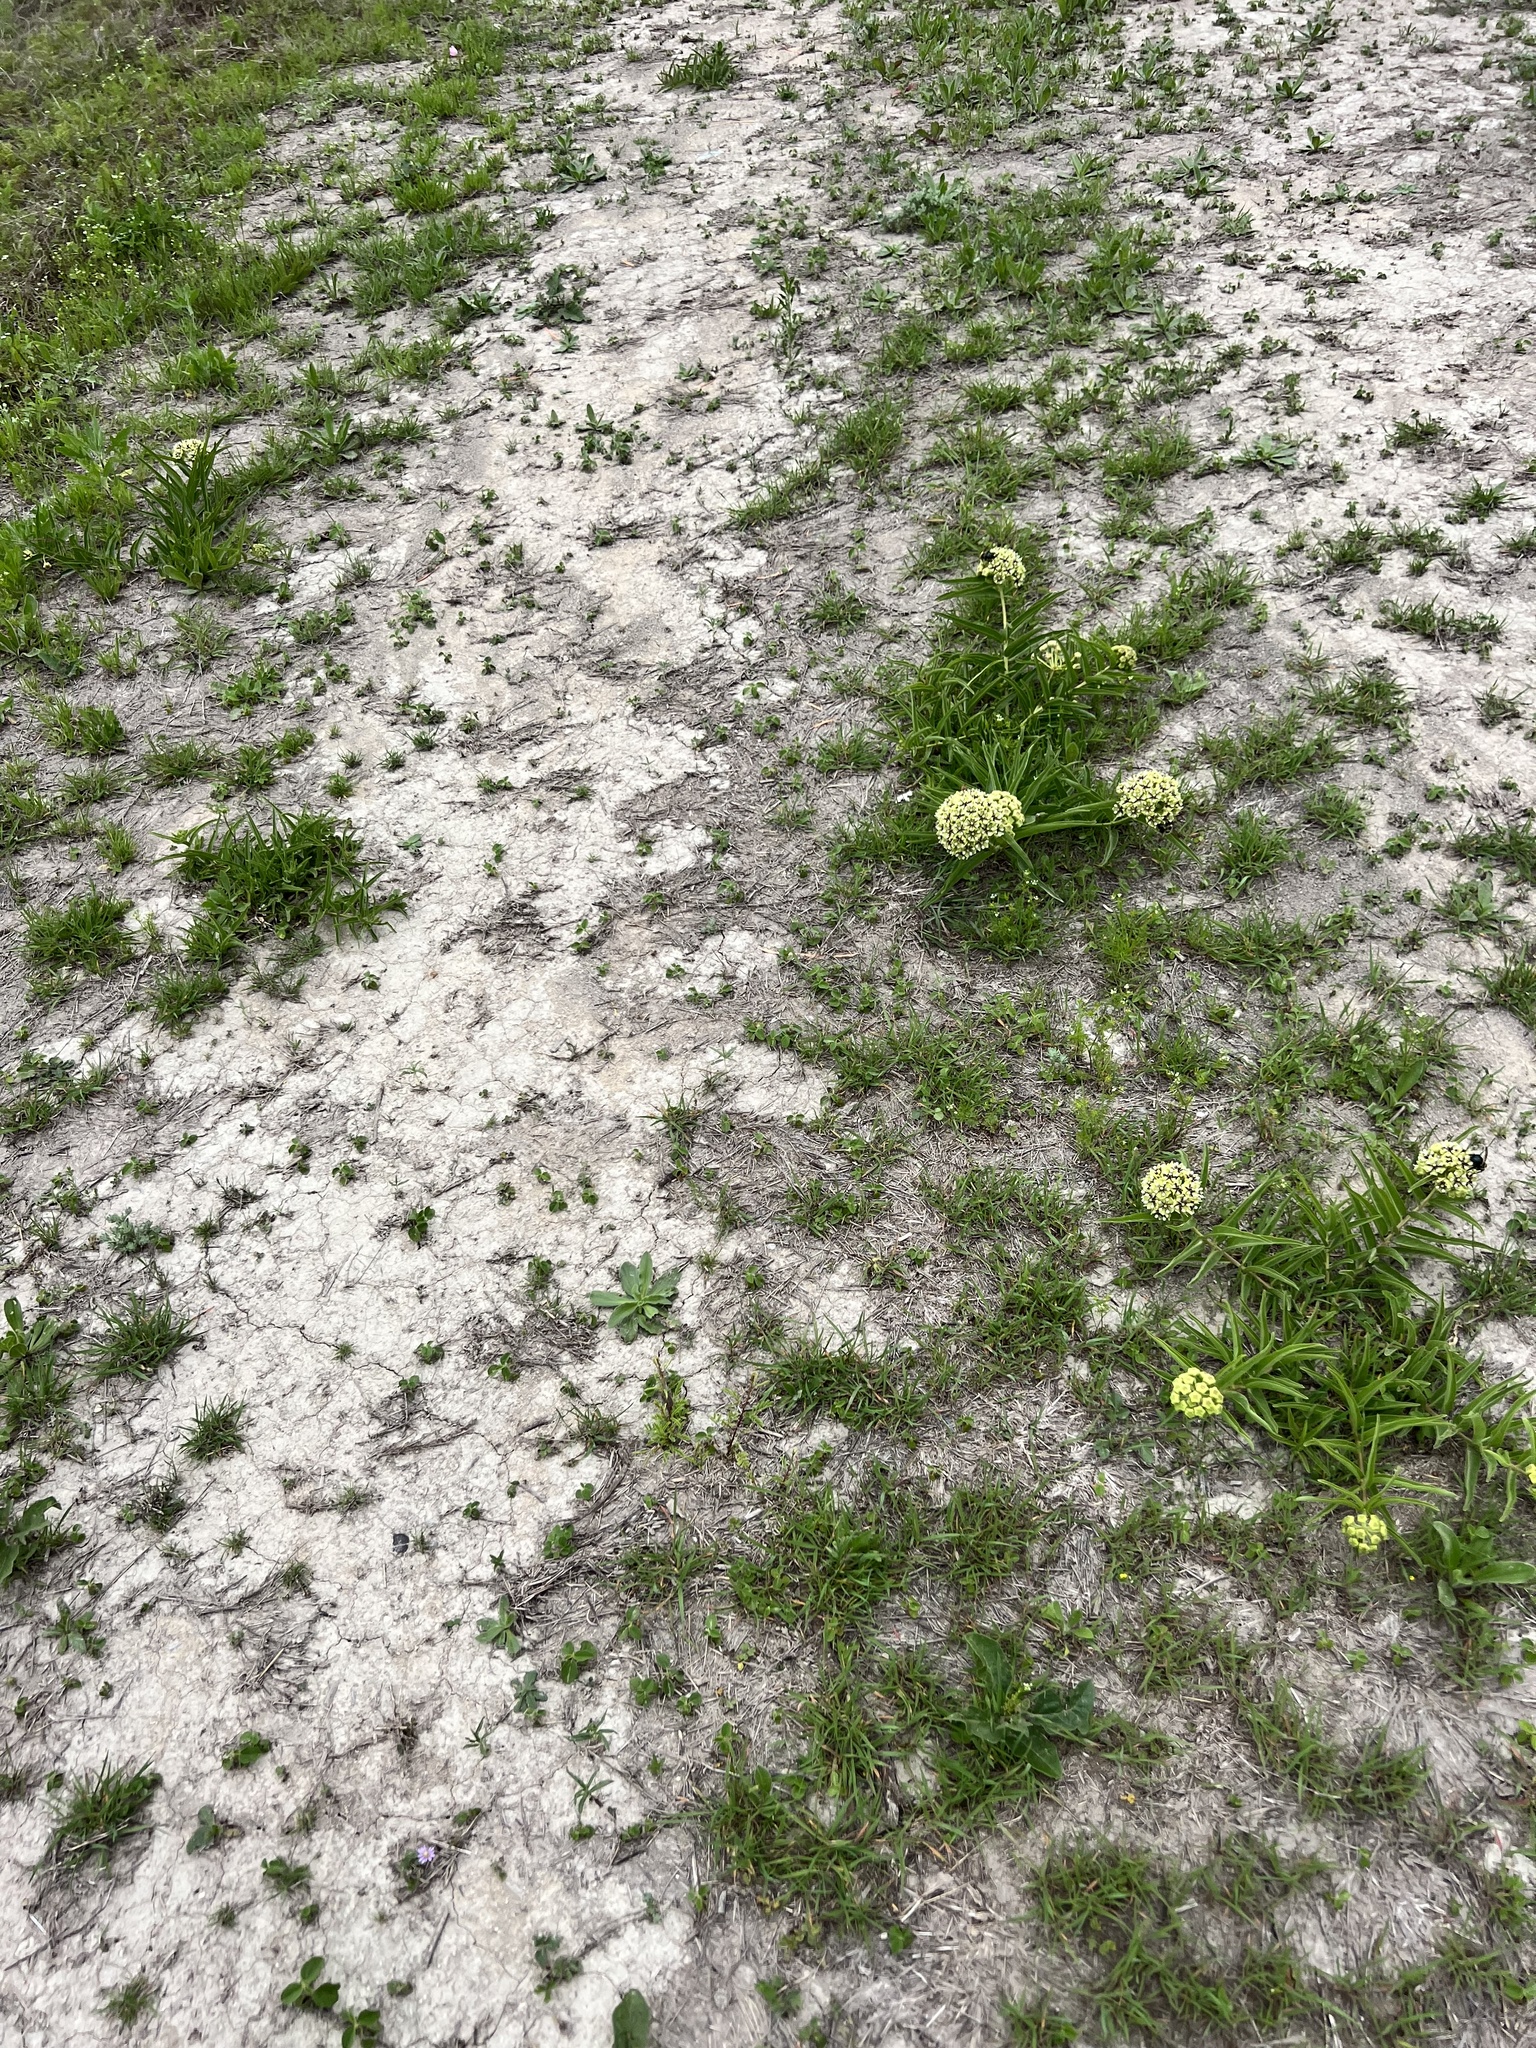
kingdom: Plantae
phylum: Tracheophyta
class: Magnoliopsida
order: Gentianales
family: Apocynaceae
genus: Asclepias
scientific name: Asclepias asperula
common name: Antelope horns
